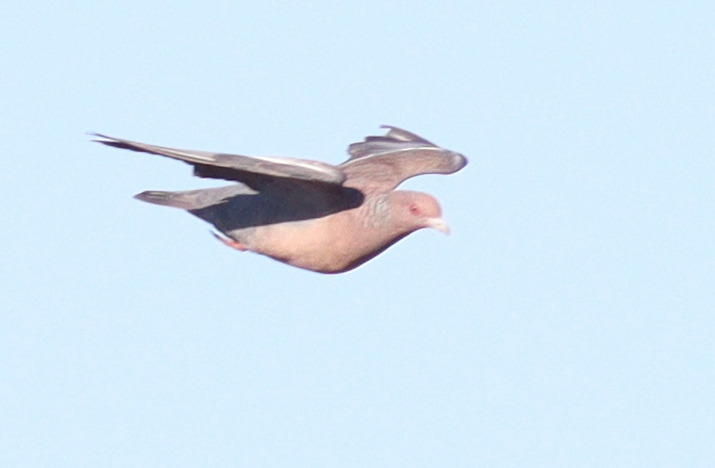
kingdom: Animalia
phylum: Chordata
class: Aves
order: Columbiformes
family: Columbidae
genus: Patagioenas
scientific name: Patagioenas picazuro
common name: Picazuro pigeon
